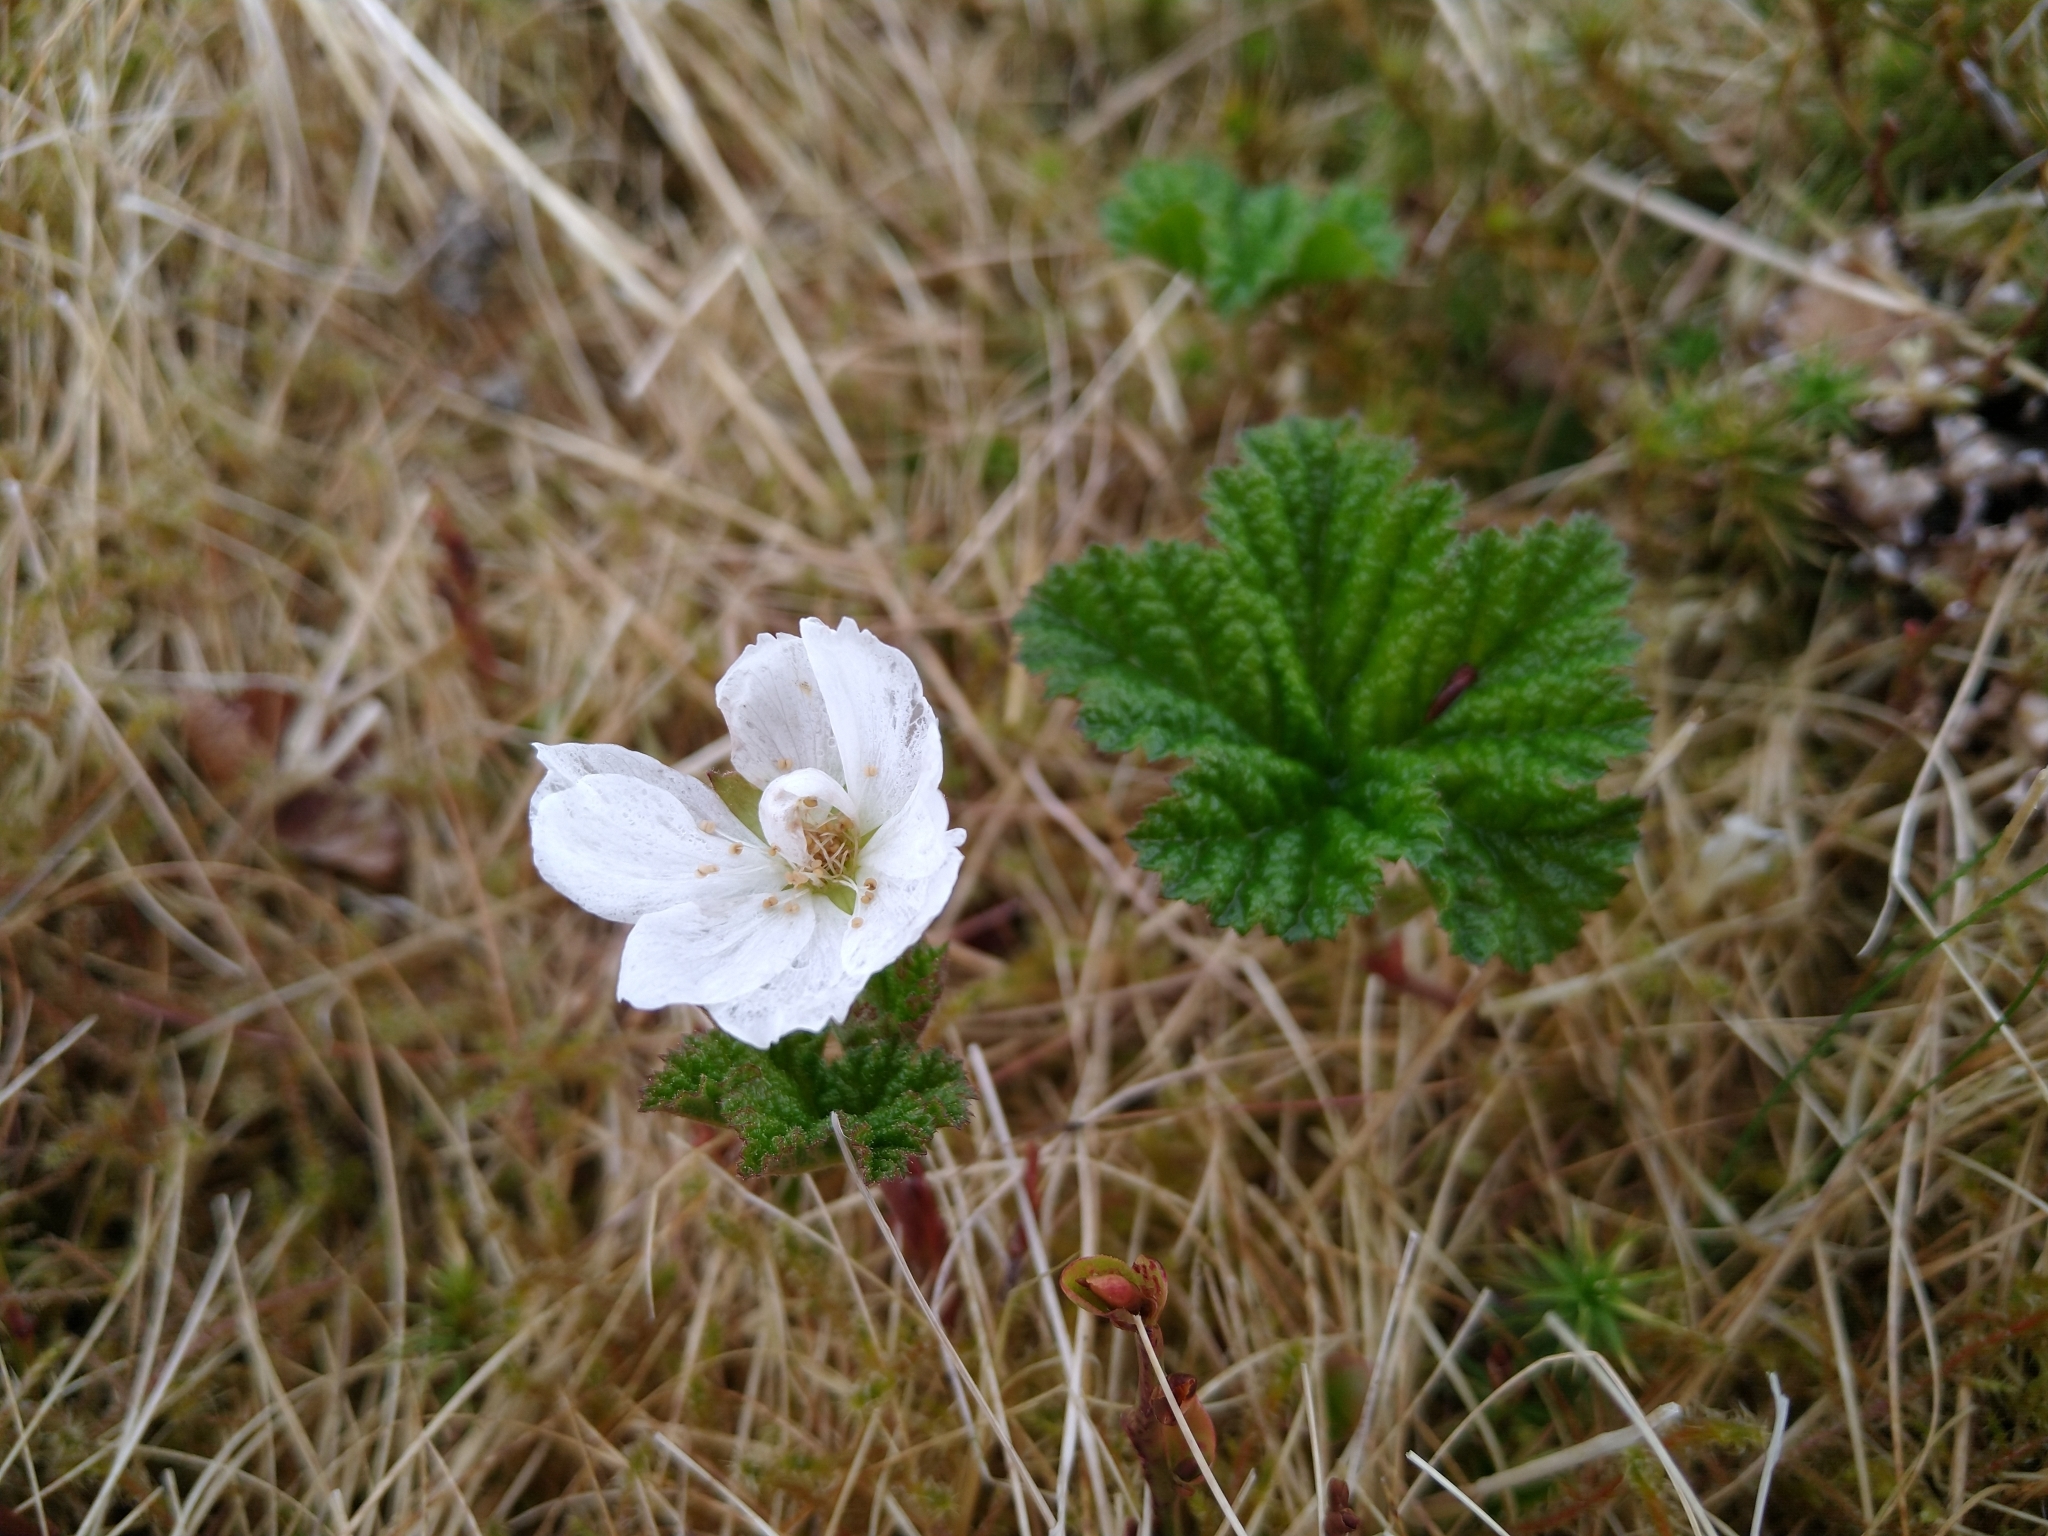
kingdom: Plantae
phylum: Tracheophyta
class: Magnoliopsida
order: Rosales
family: Rosaceae
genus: Rubus
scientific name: Rubus chamaemorus
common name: Cloudberry
